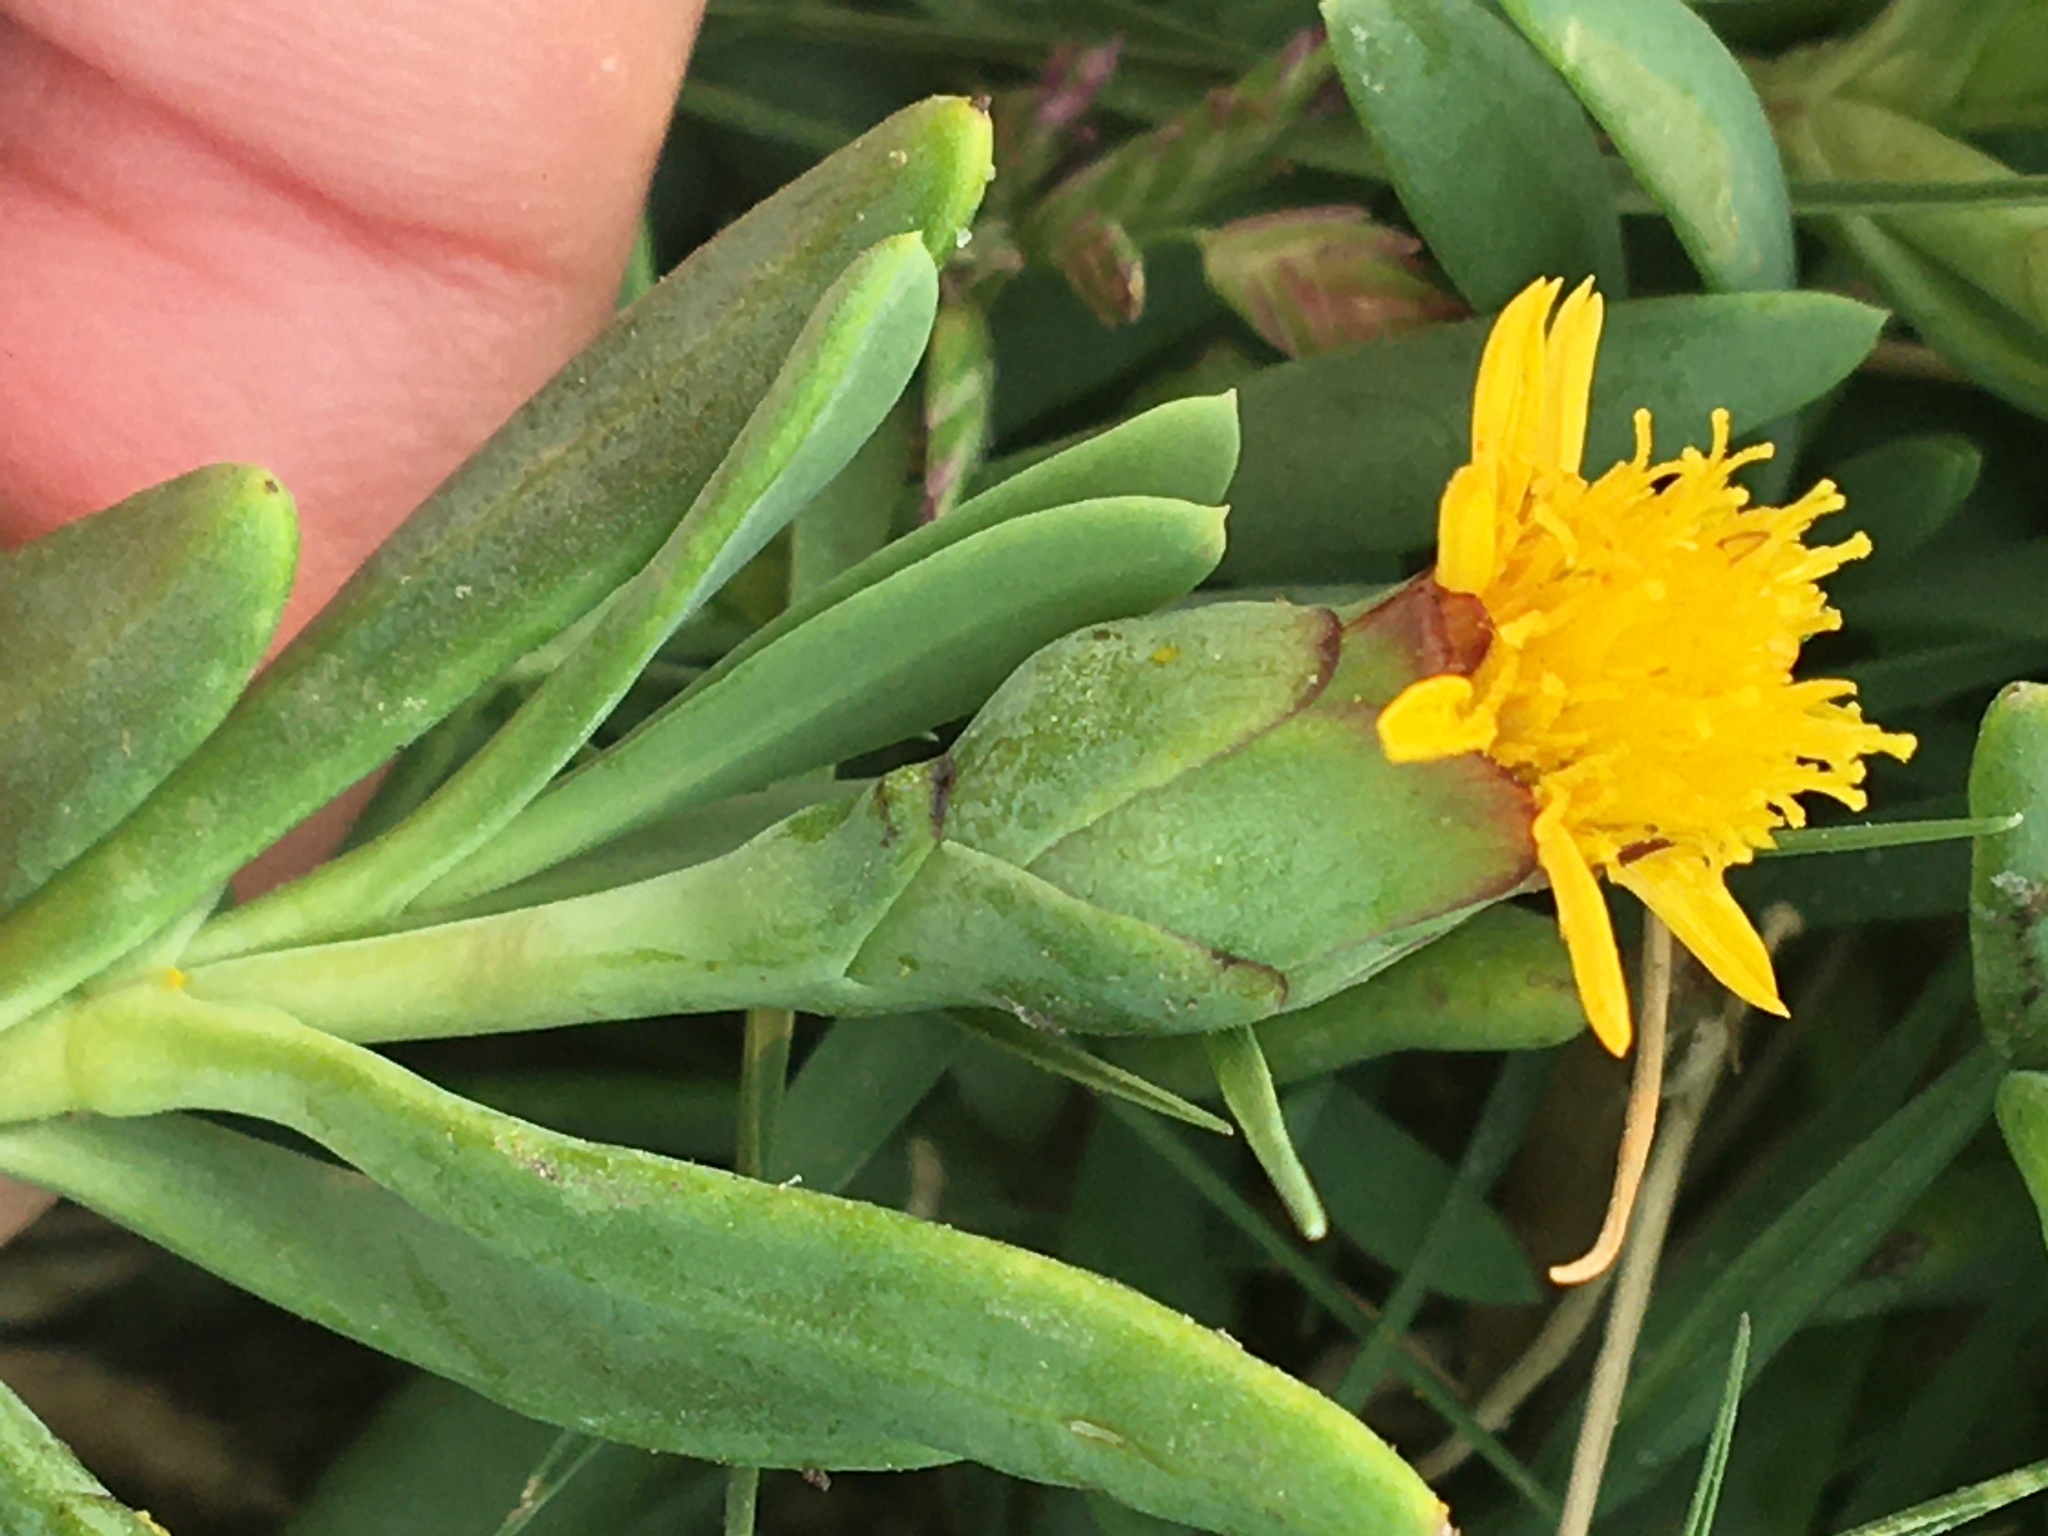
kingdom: Plantae
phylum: Tracheophyta
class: Magnoliopsida
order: Asterales
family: Asteraceae
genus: Jaumea
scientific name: Jaumea carnosa
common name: Fleshy jaumea
